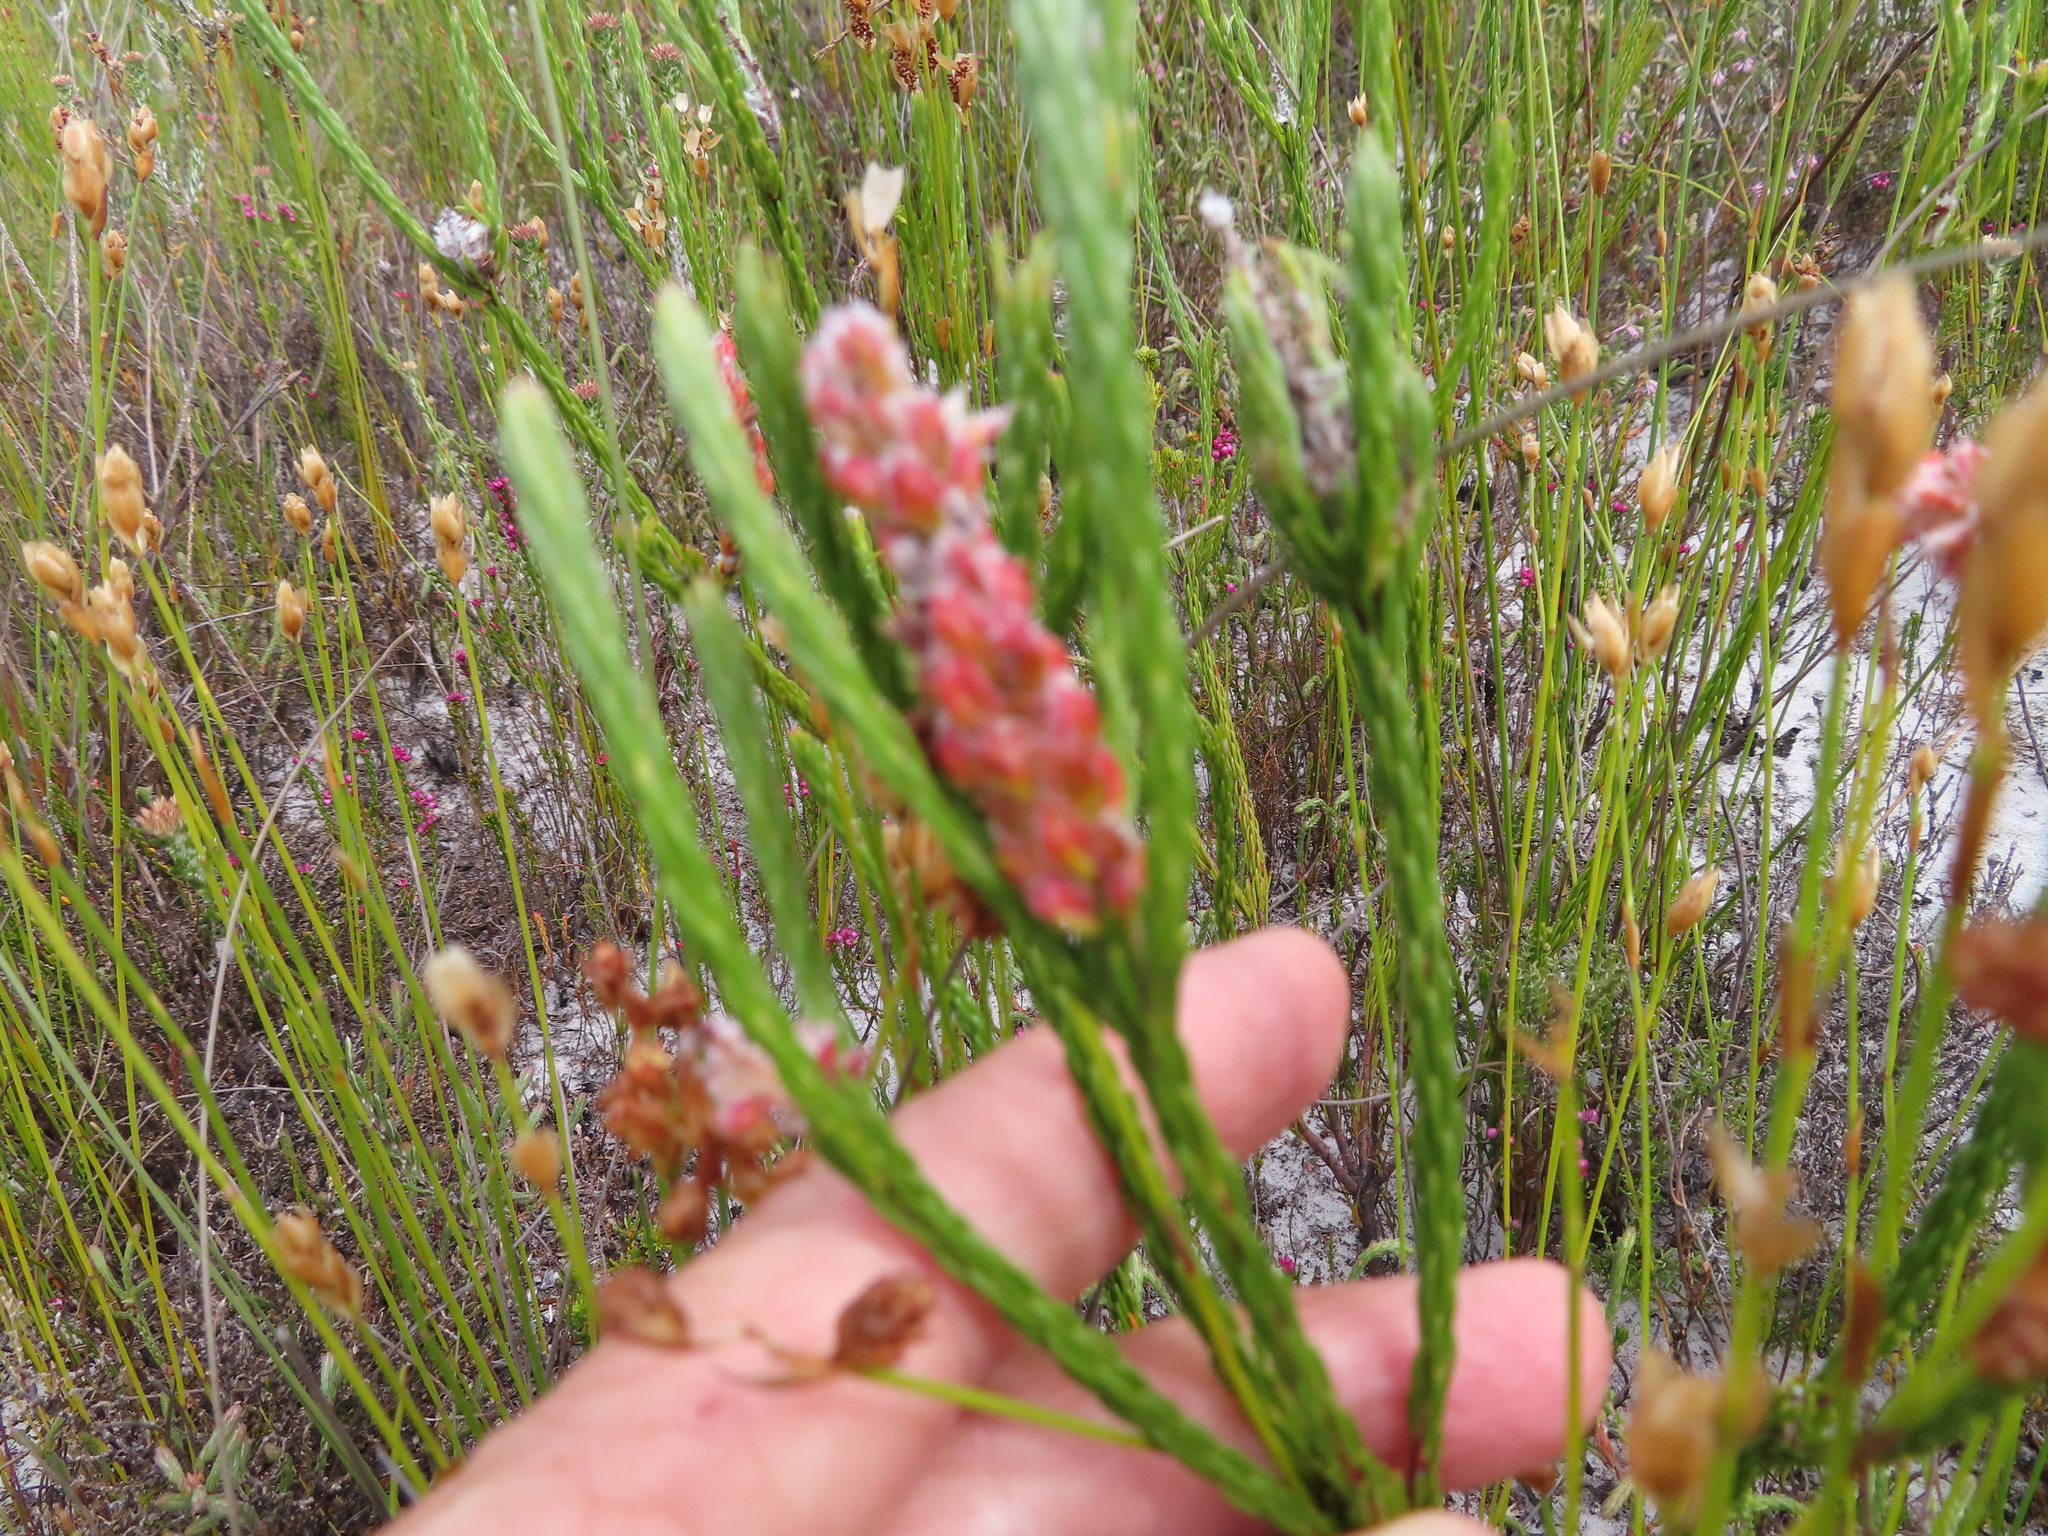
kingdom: Plantae
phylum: Tracheophyta
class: Magnoliopsida
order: Proteales
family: Proteaceae
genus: Spatalla
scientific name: Spatalla ericoides
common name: Erica-leaf spoon
